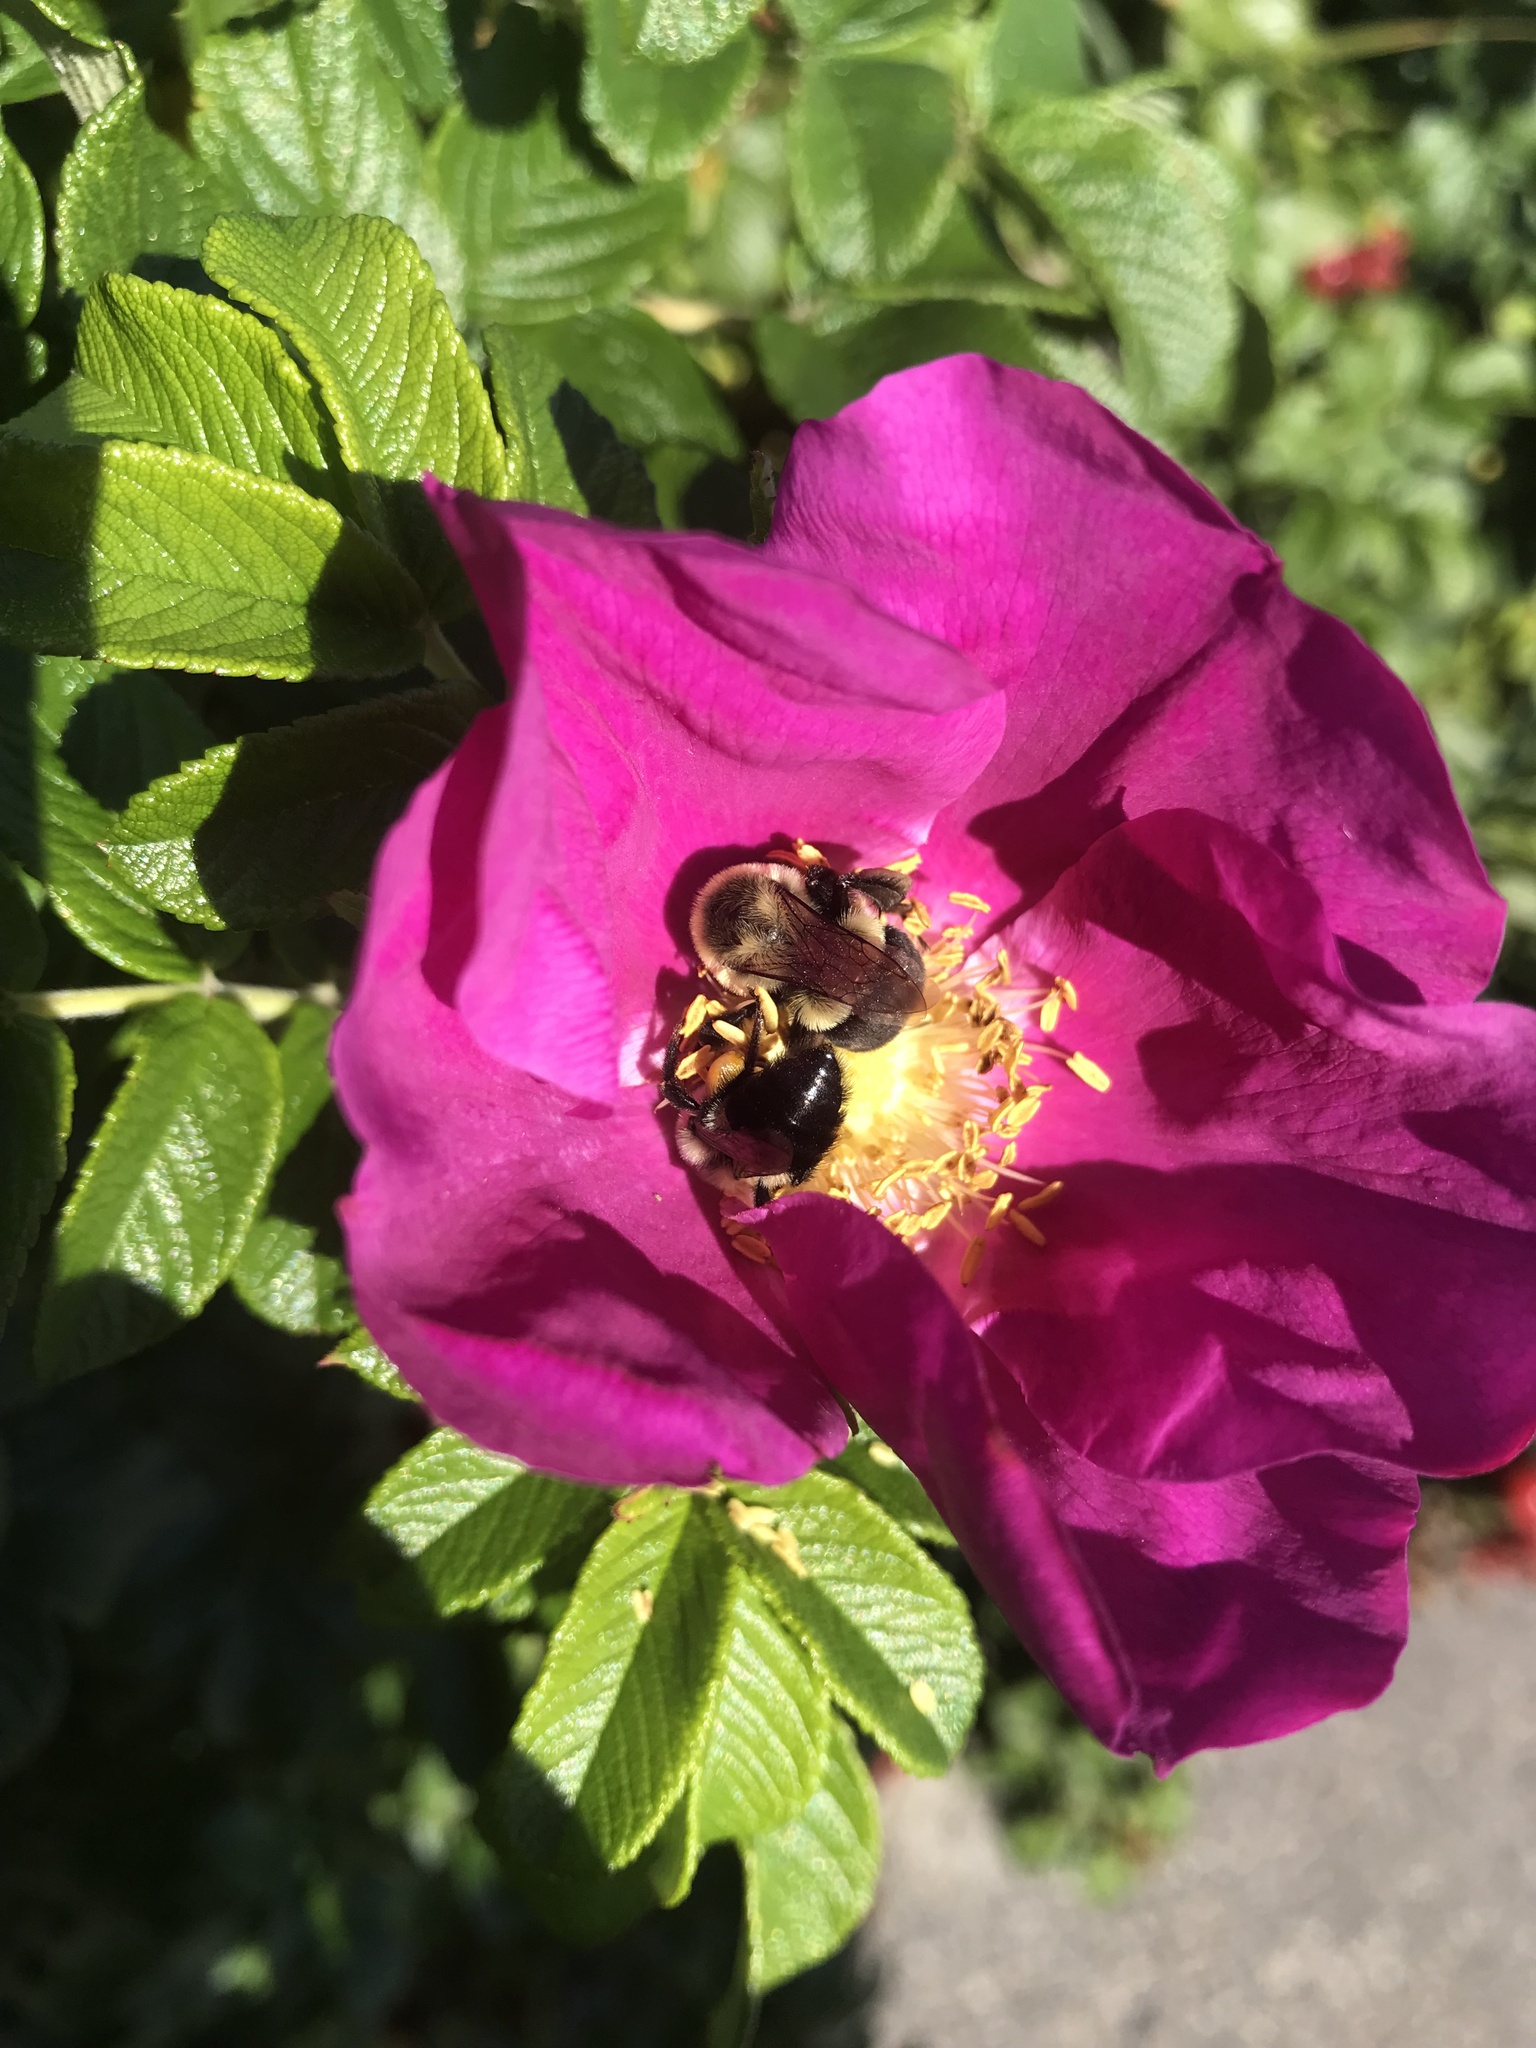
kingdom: Animalia
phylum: Arthropoda
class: Insecta
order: Hymenoptera
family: Apidae
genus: Bombus
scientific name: Bombus impatiens
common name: Common eastern bumble bee
